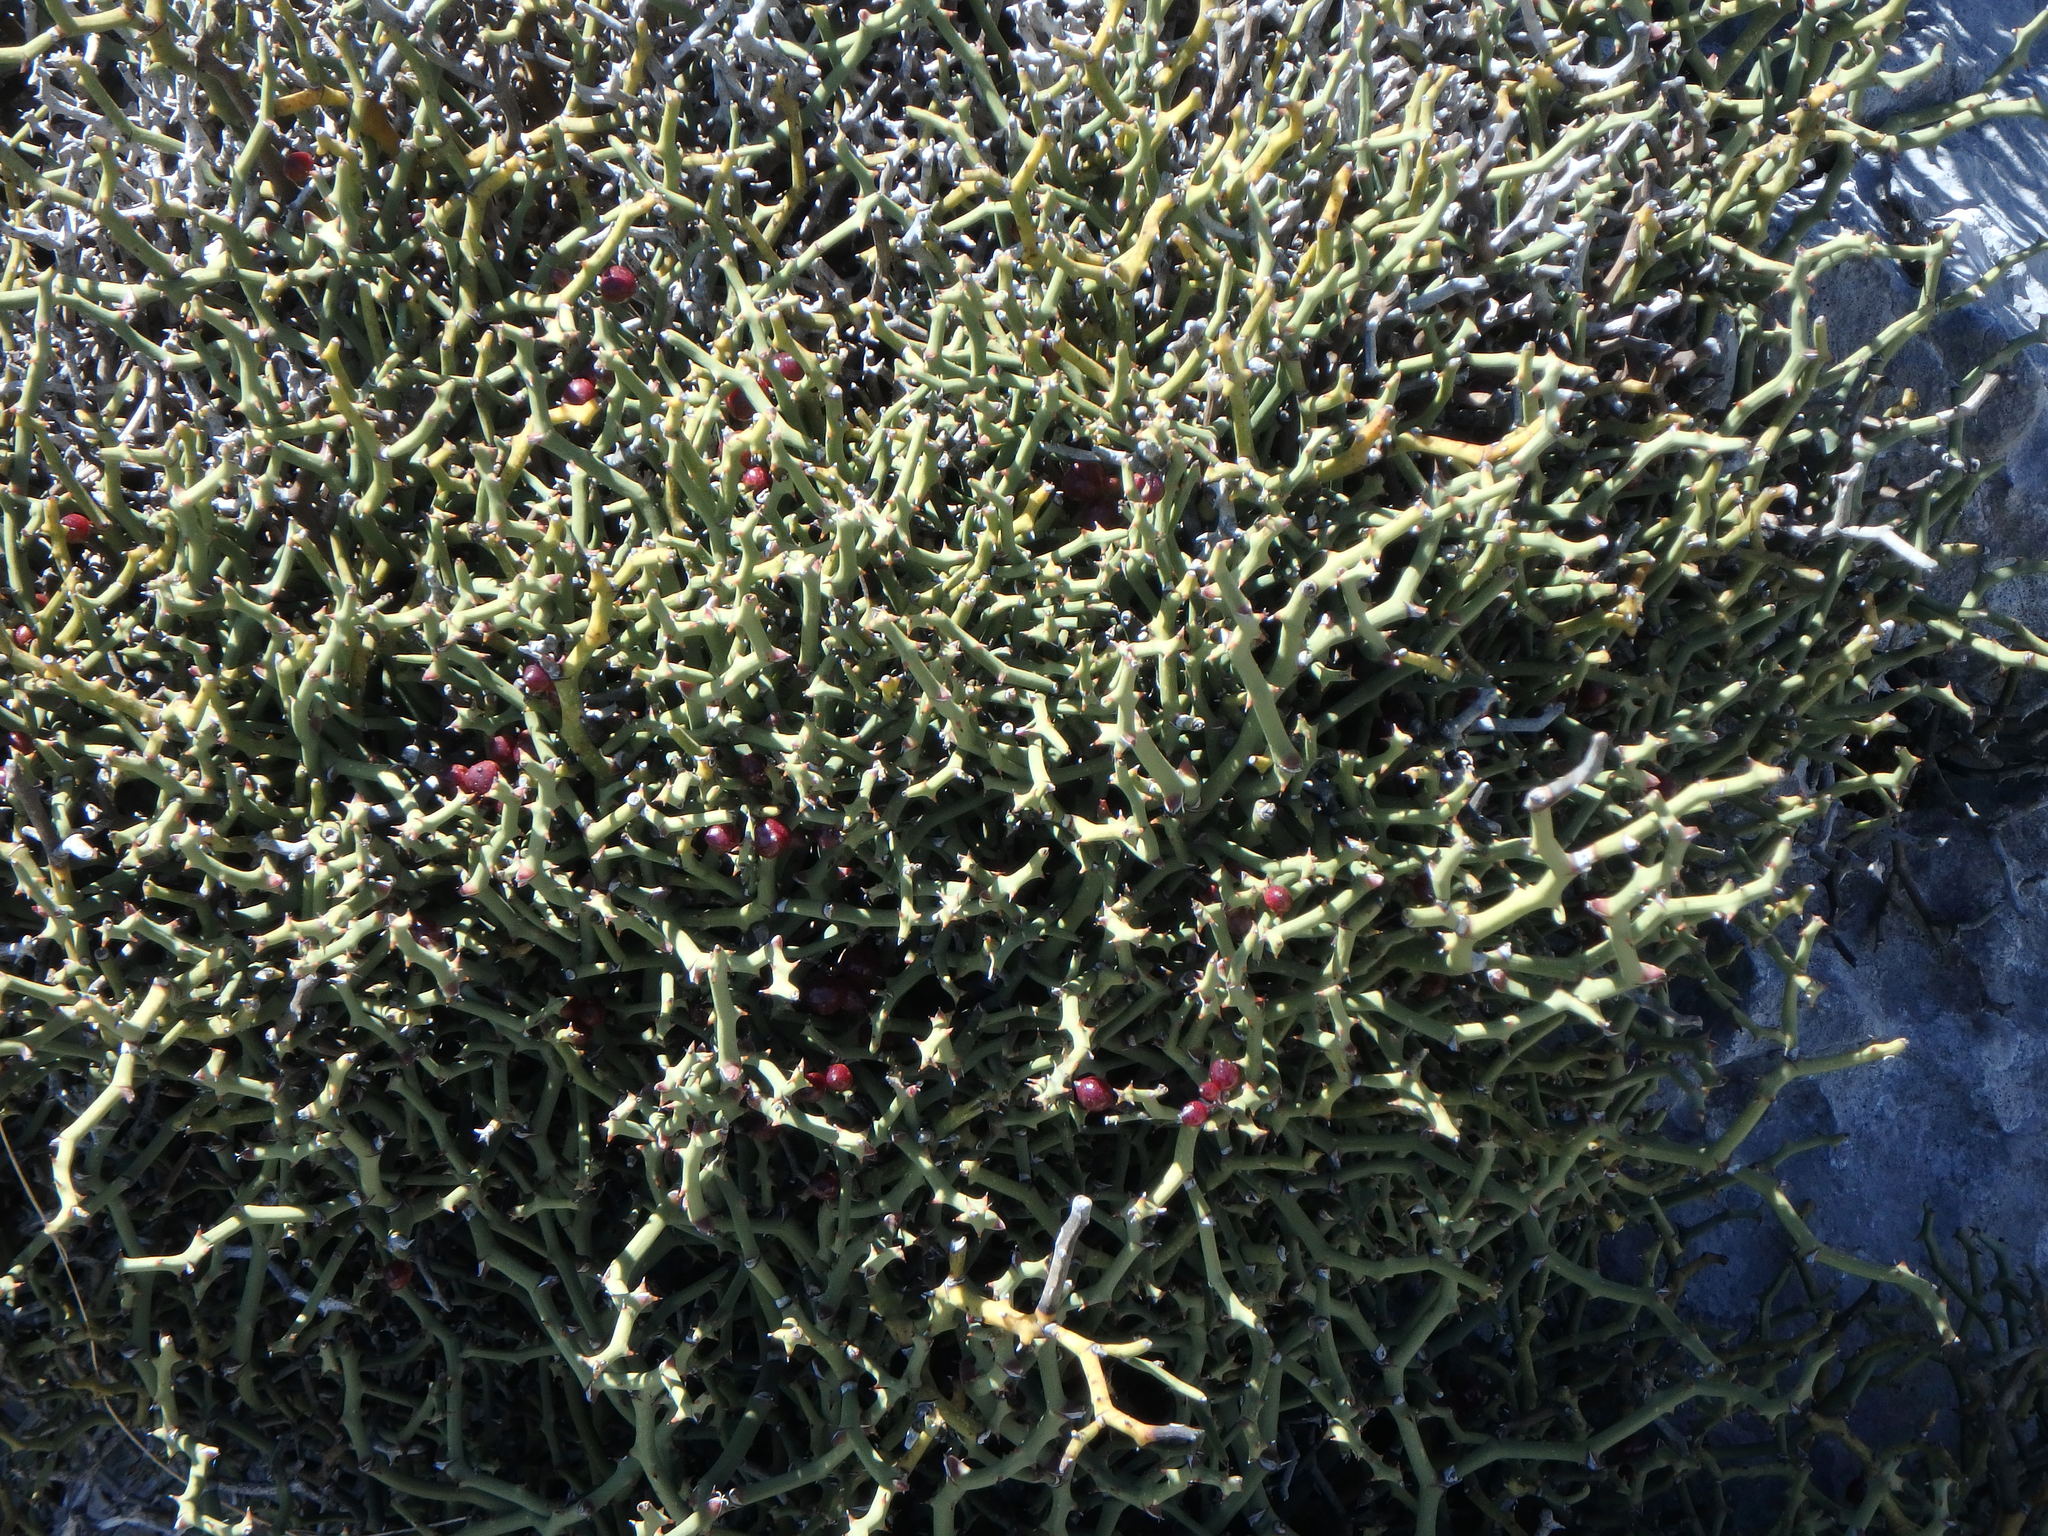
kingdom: Plantae
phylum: Tracheophyta
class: Liliopsida
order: Liliales
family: Smilacaceae
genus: Smilax
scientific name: Smilax aspera
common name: Common smilax
